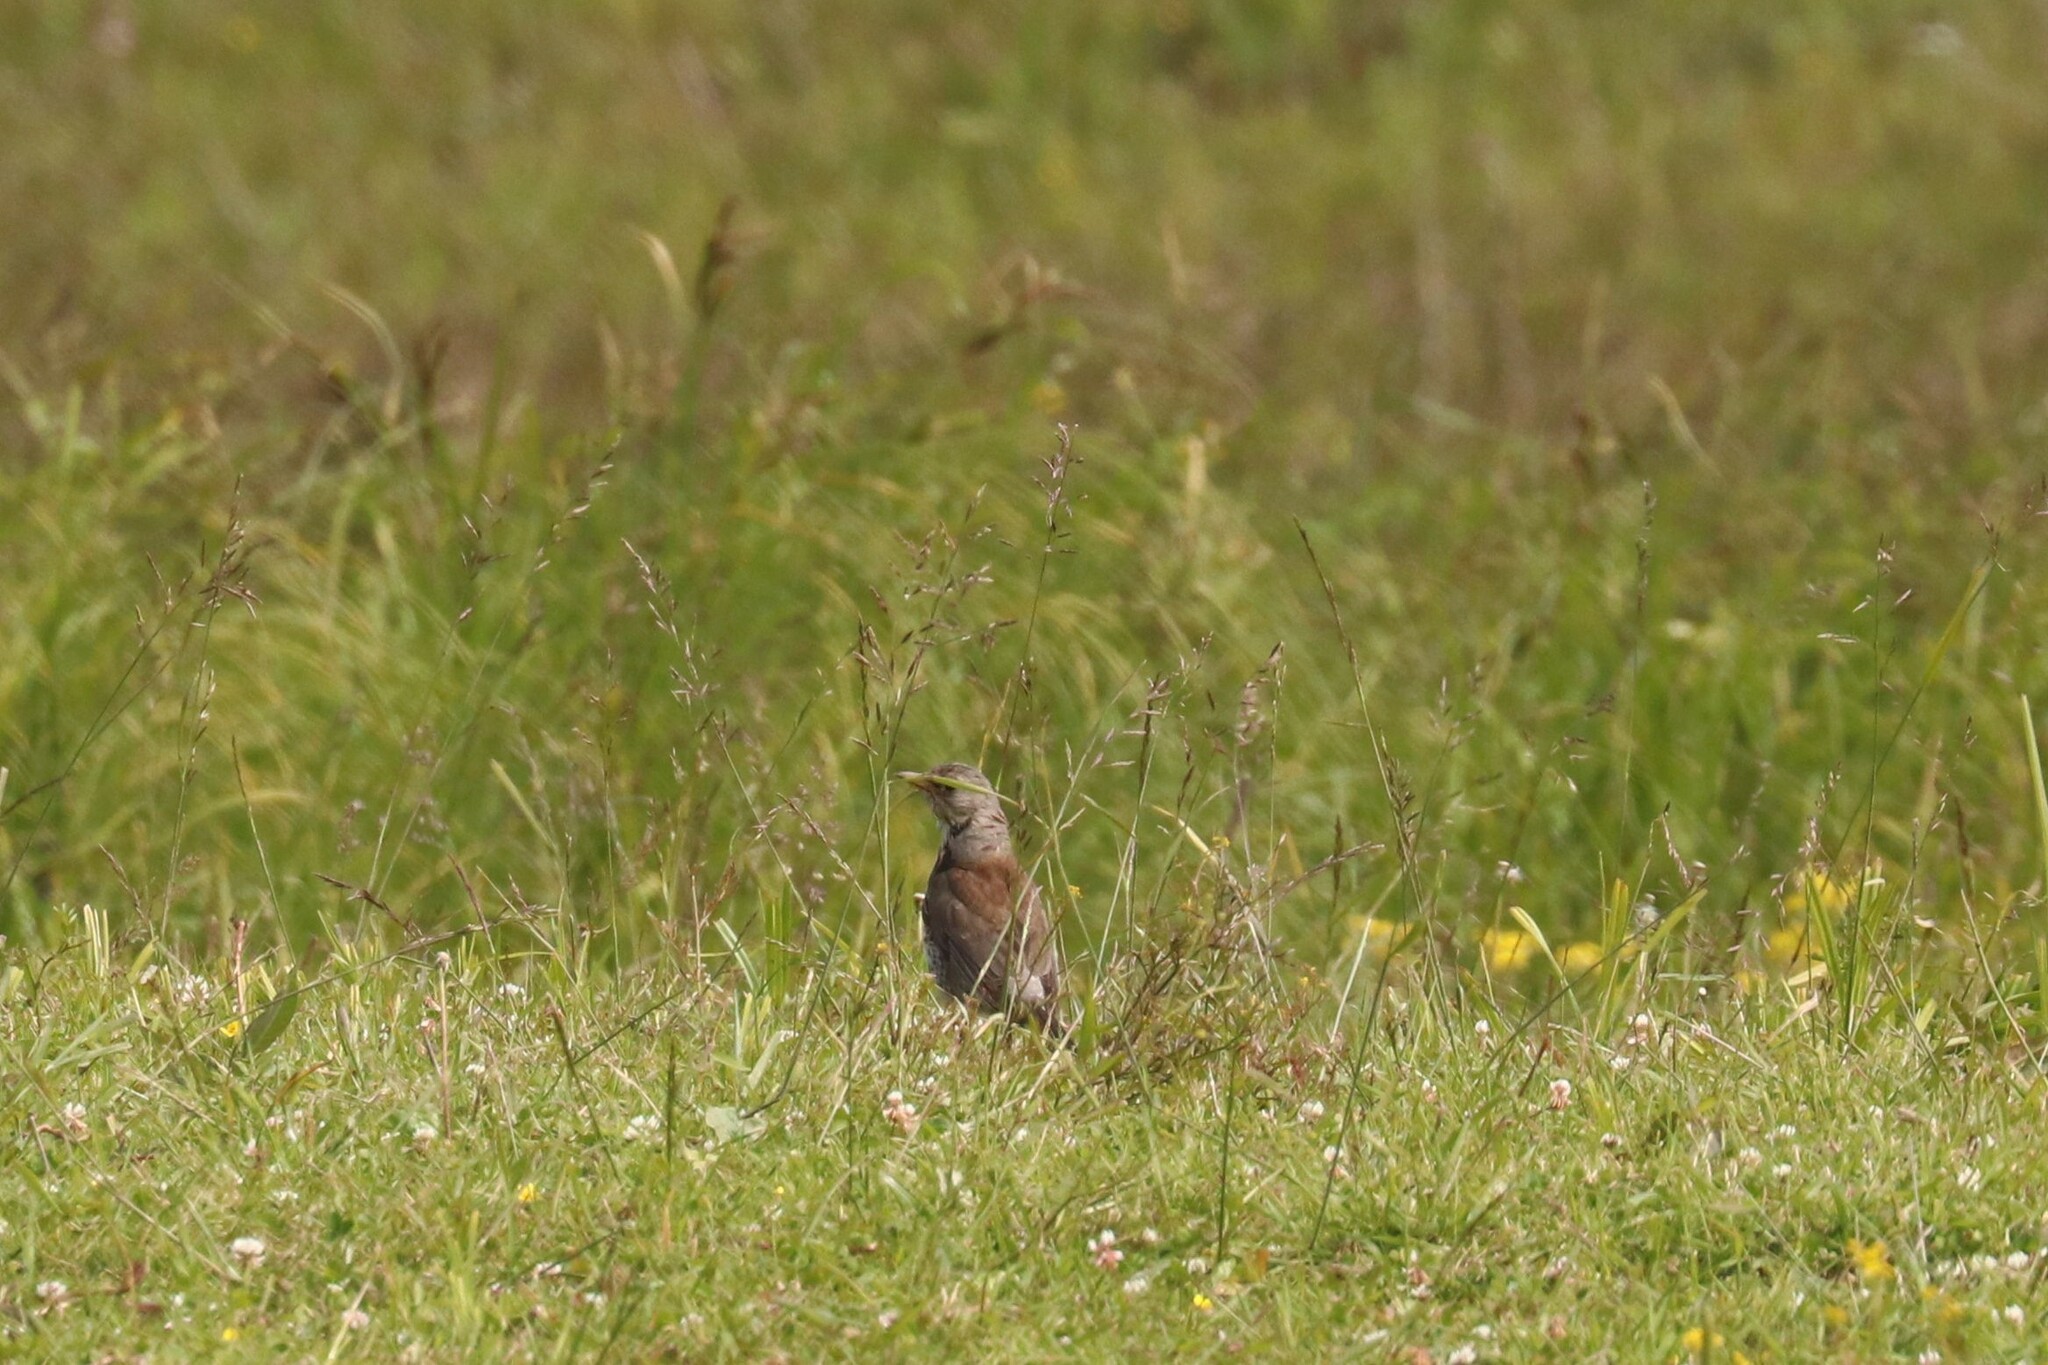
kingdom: Animalia
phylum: Chordata
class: Aves
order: Passeriformes
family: Turdidae
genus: Turdus
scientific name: Turdus pilaris
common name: Fieldfare
